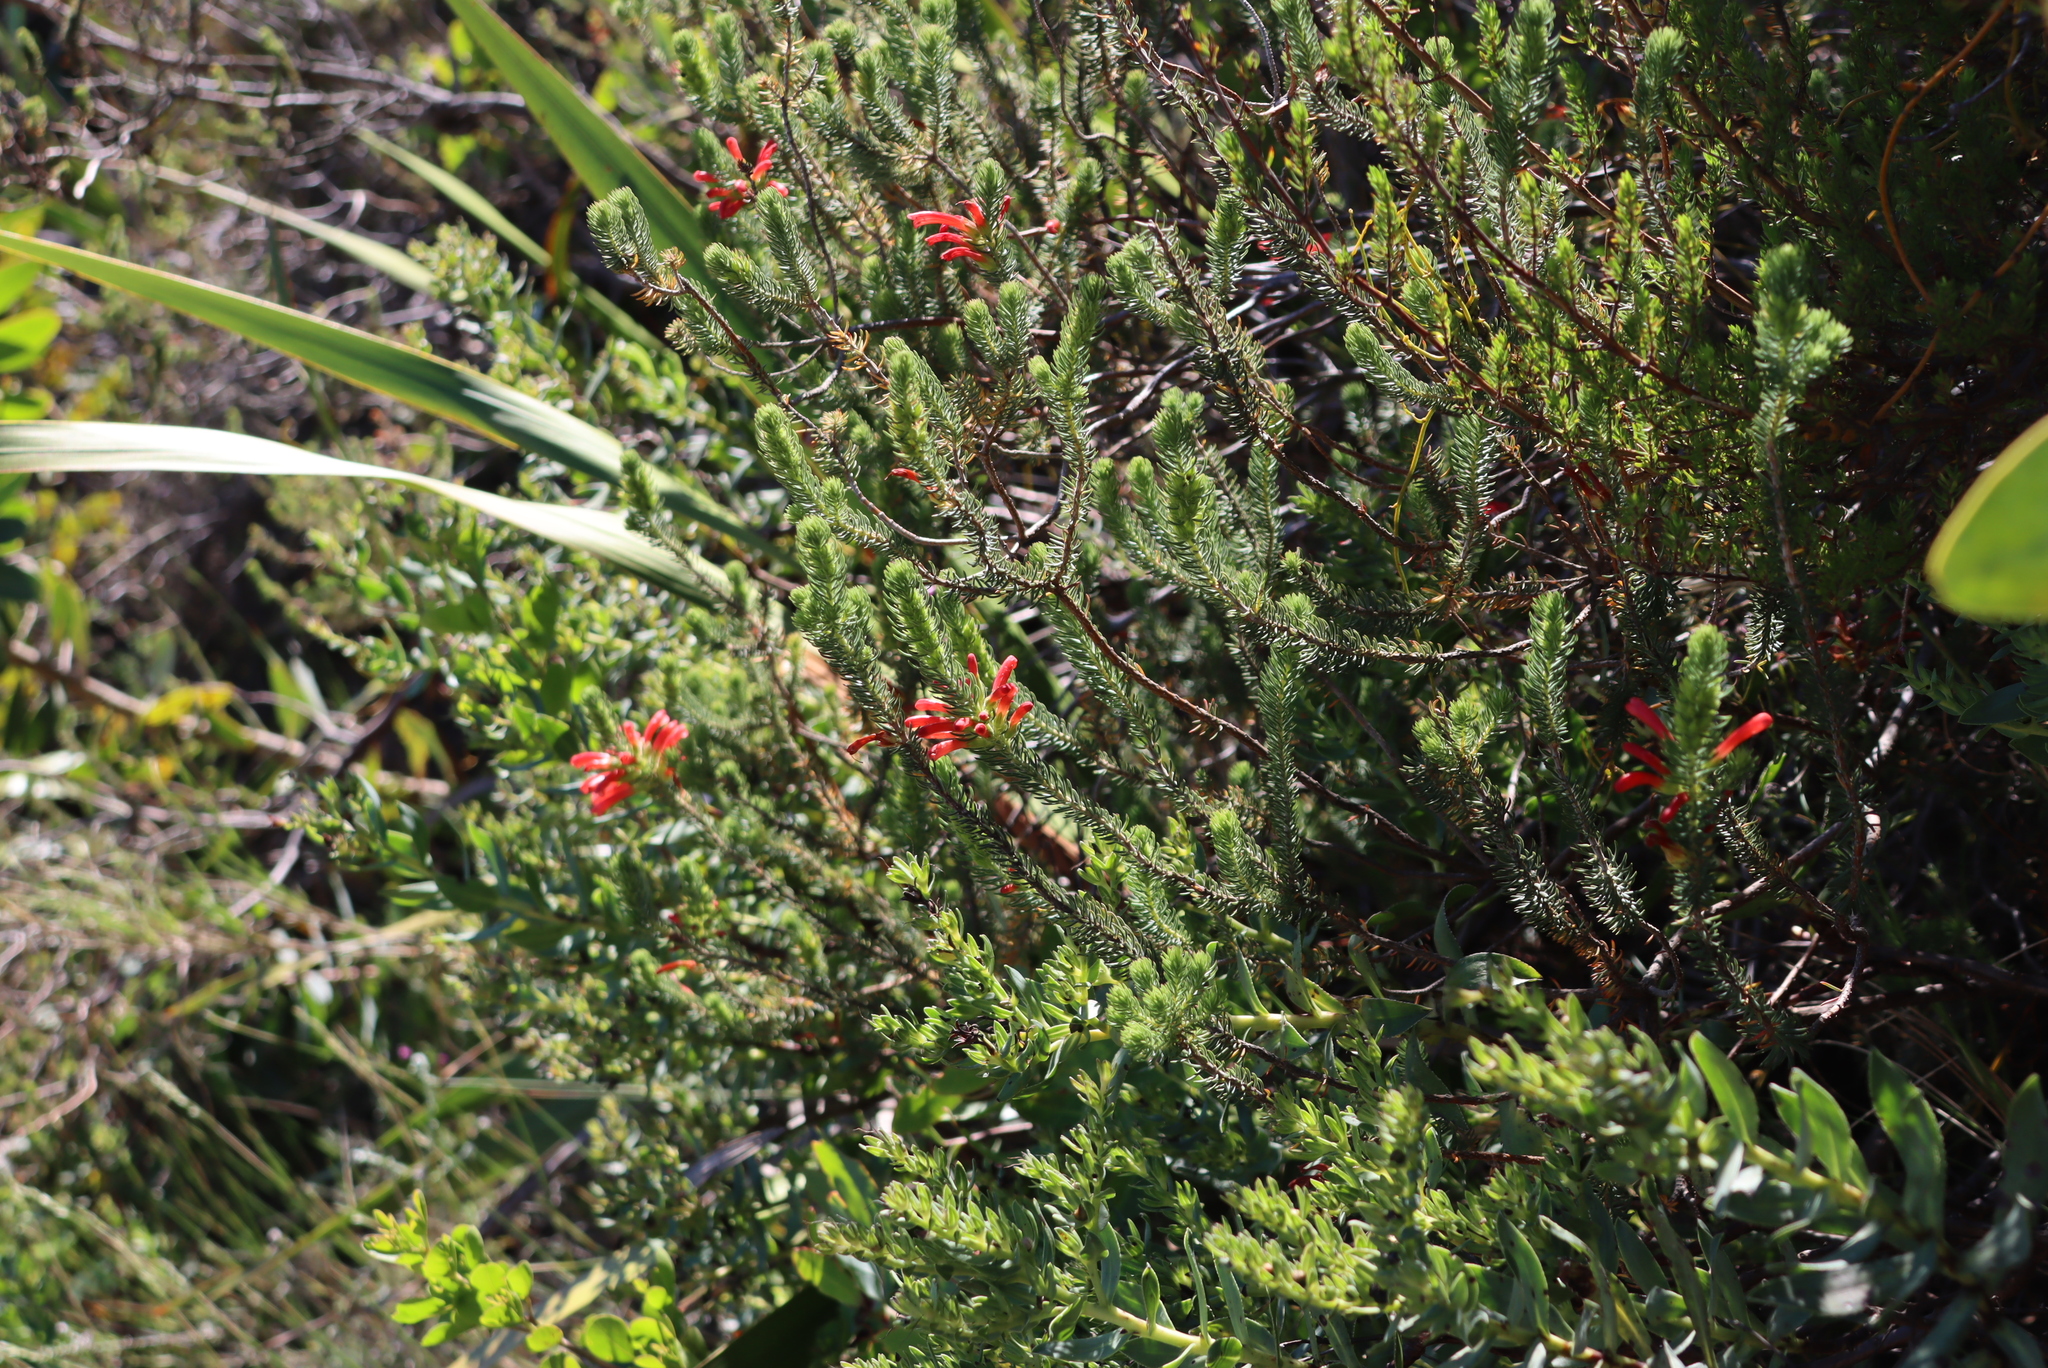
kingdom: Plantae
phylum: Tracheophyta
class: Magnoliopsida
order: Ericales
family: Ericaceae
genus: Erica
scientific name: Erica abietina
